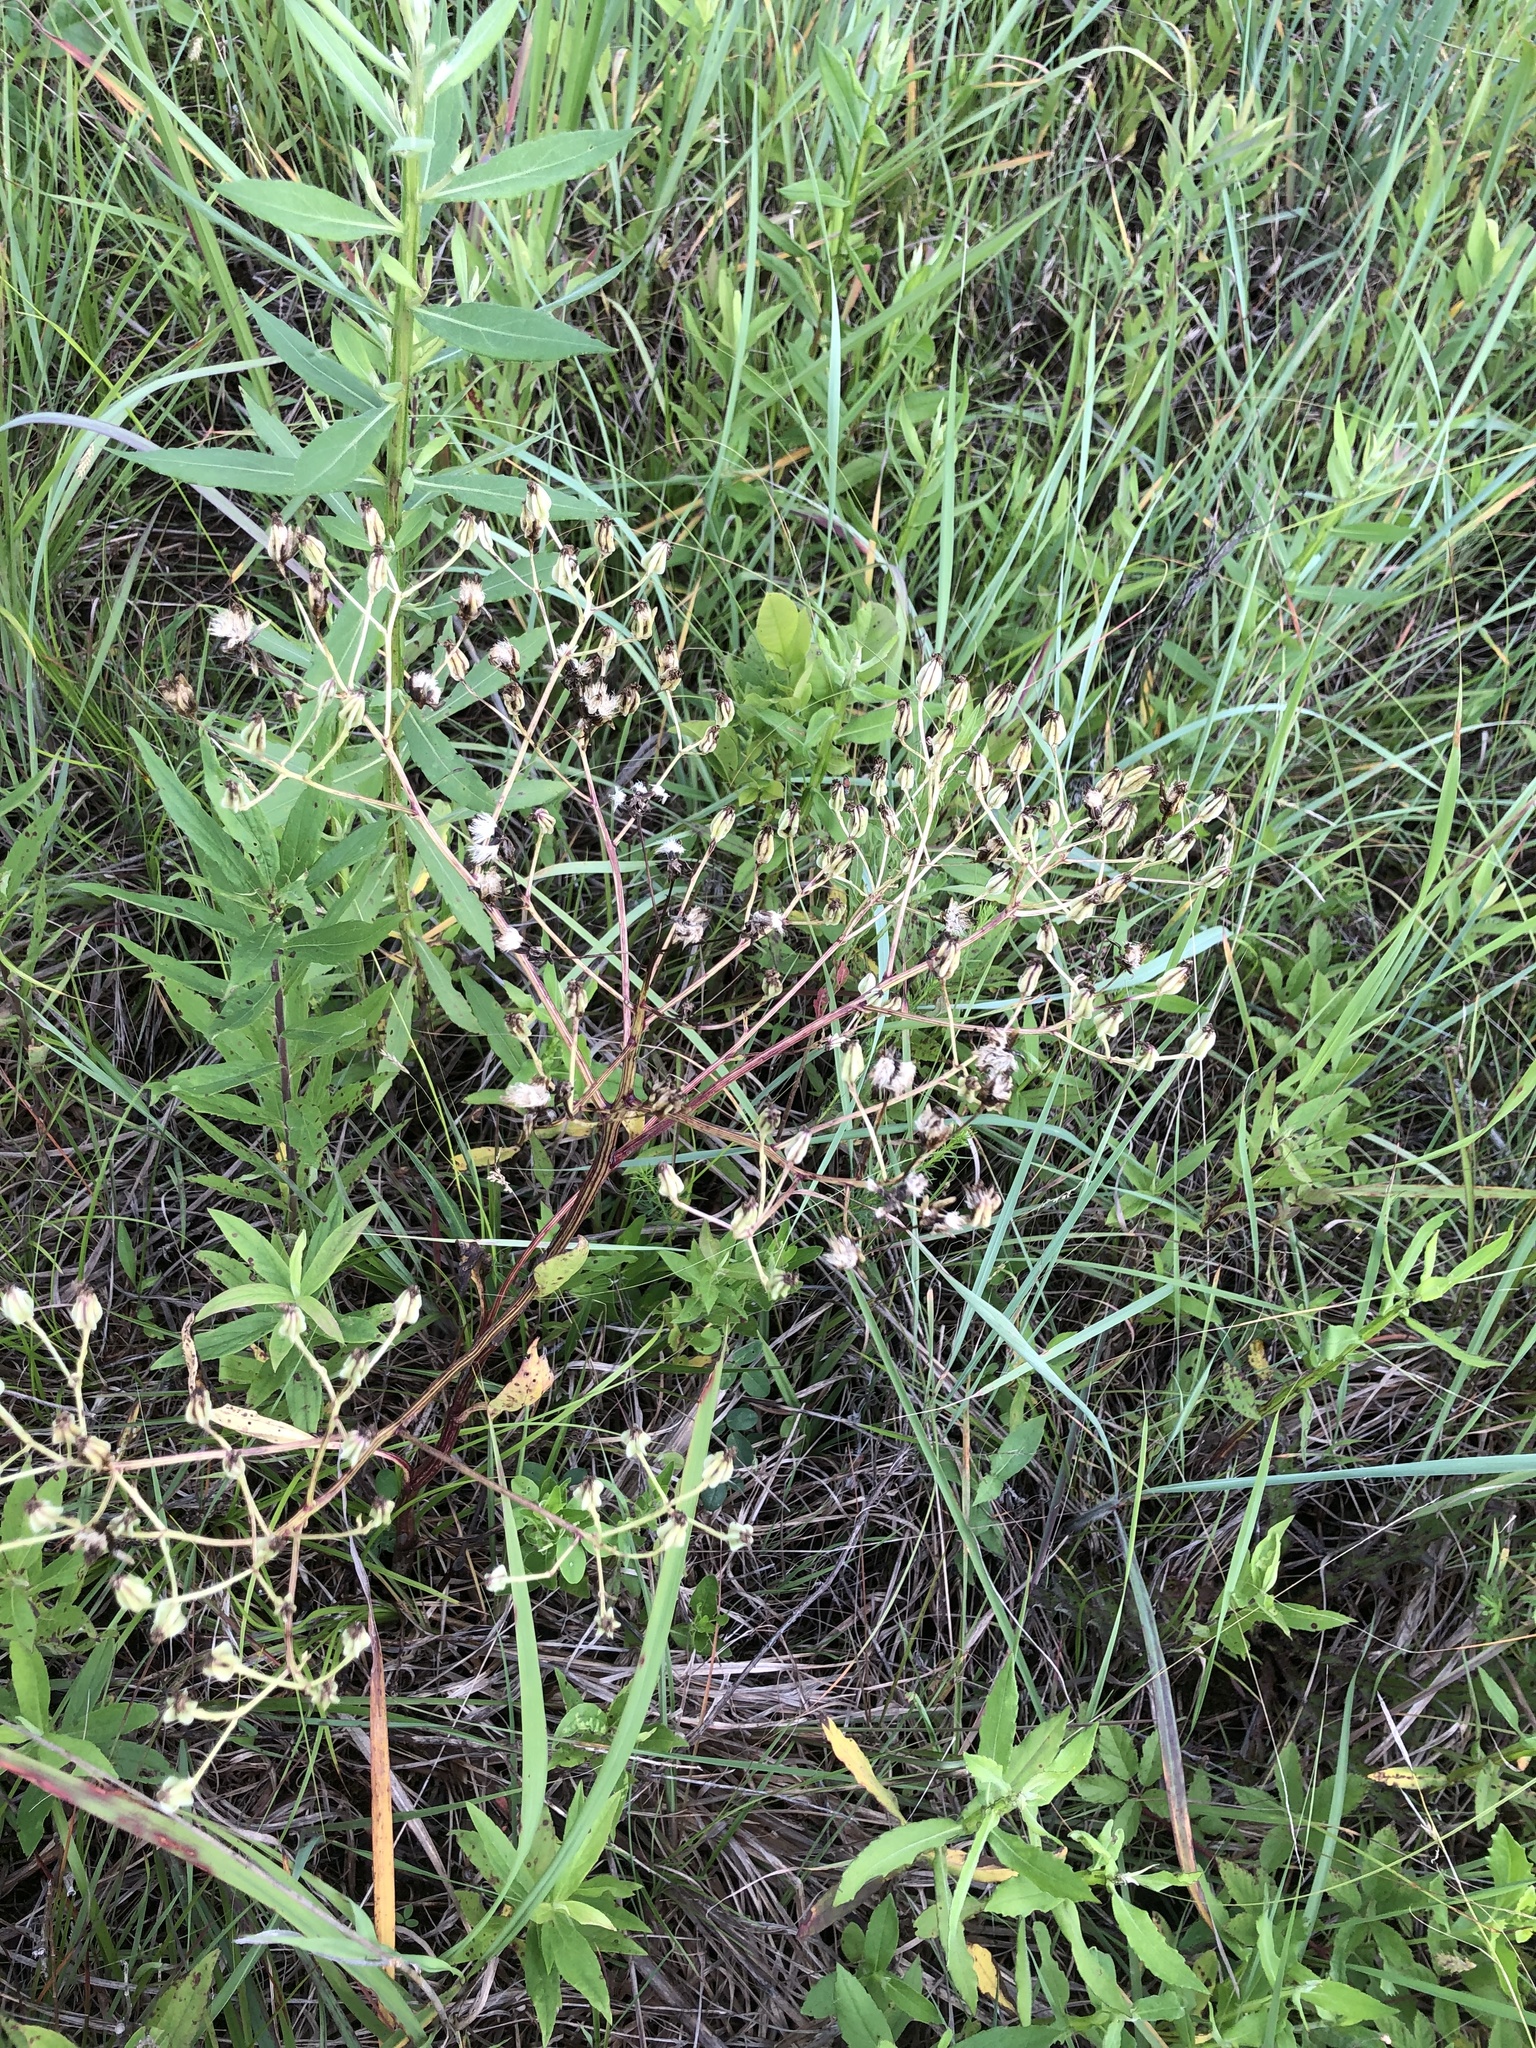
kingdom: Plantae
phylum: Tracheophyta
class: Magnoliopsida
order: Asterales
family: Asteraceae
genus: Arnoglossum
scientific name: Arnoglossum plantagineum
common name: Groove-stemmed indian-plantain
